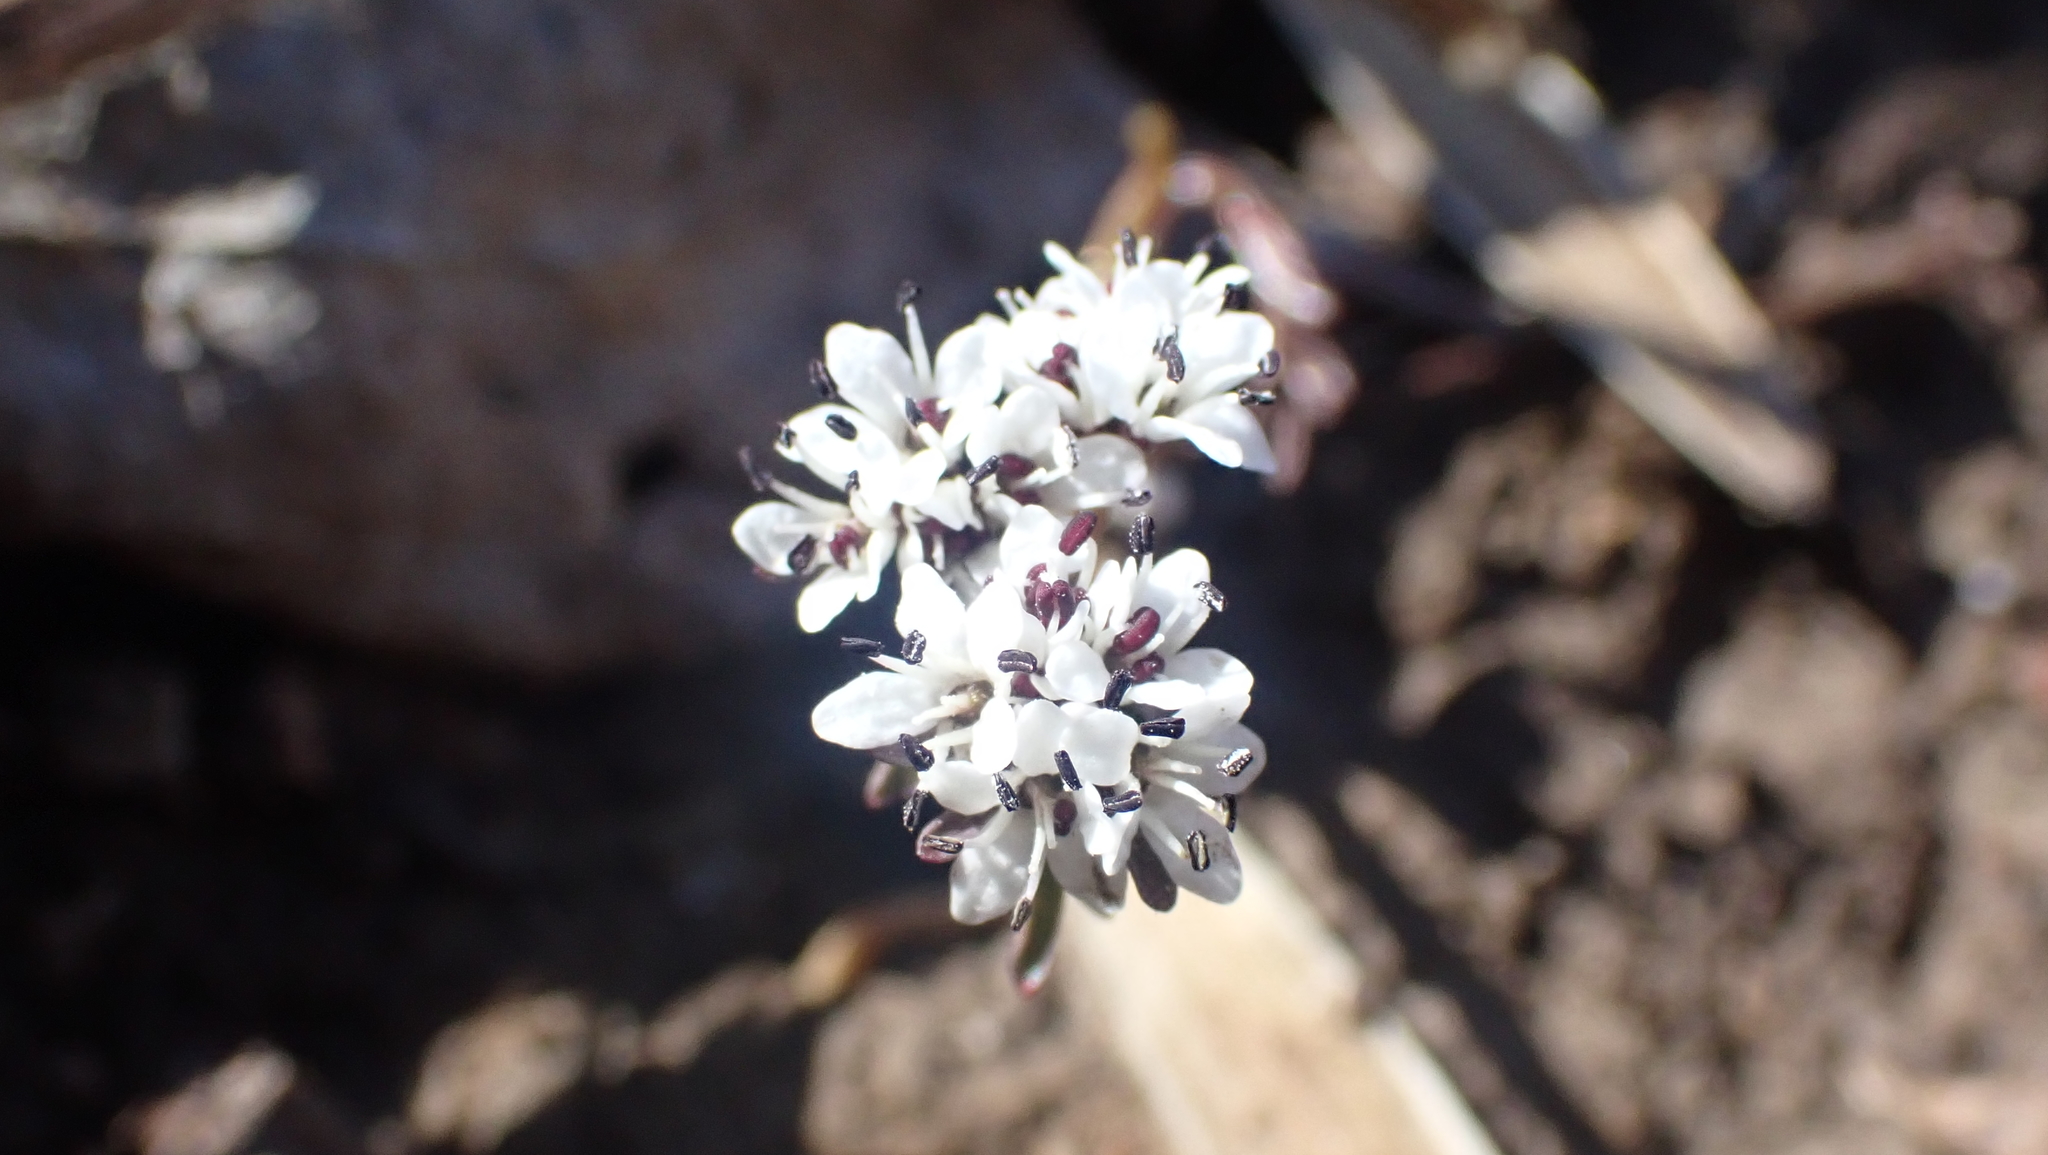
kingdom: Plantae
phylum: Tracheophyta
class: Magnoliopsida
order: Apiales
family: Apiaceae
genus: Erigenia
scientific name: Erigenia bulbosa
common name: Pepper-and-salt
